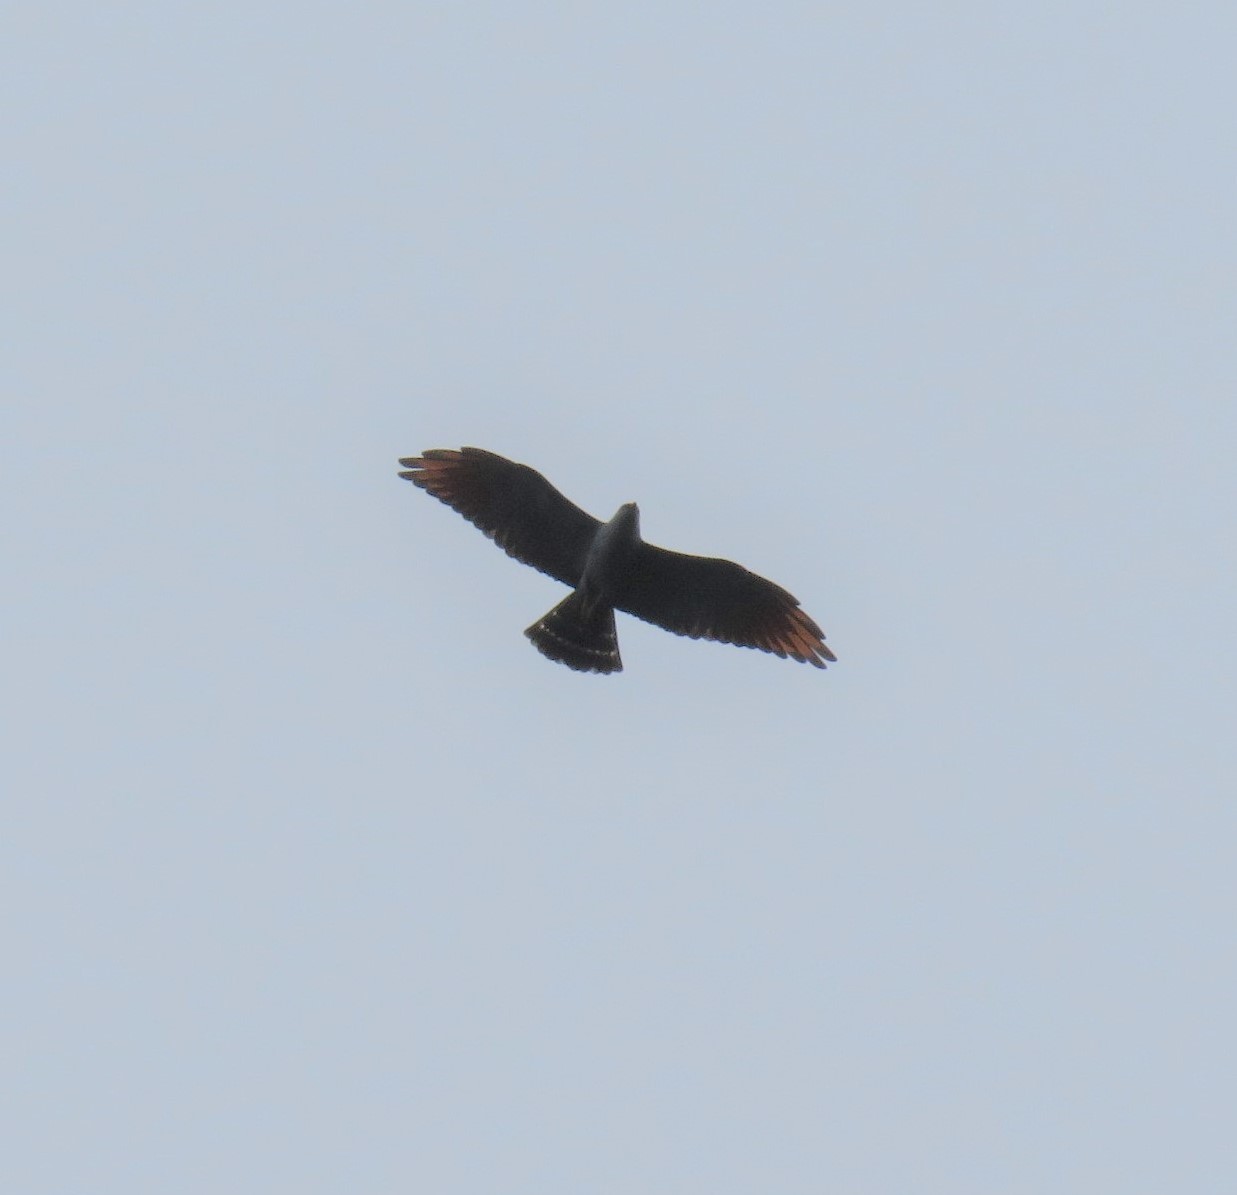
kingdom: Animalia
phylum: Chordata
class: Aves
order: Accipitriformes
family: Accipitridae
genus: Ictinia
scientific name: Ictinia plumbea
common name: Plumbeous kite
